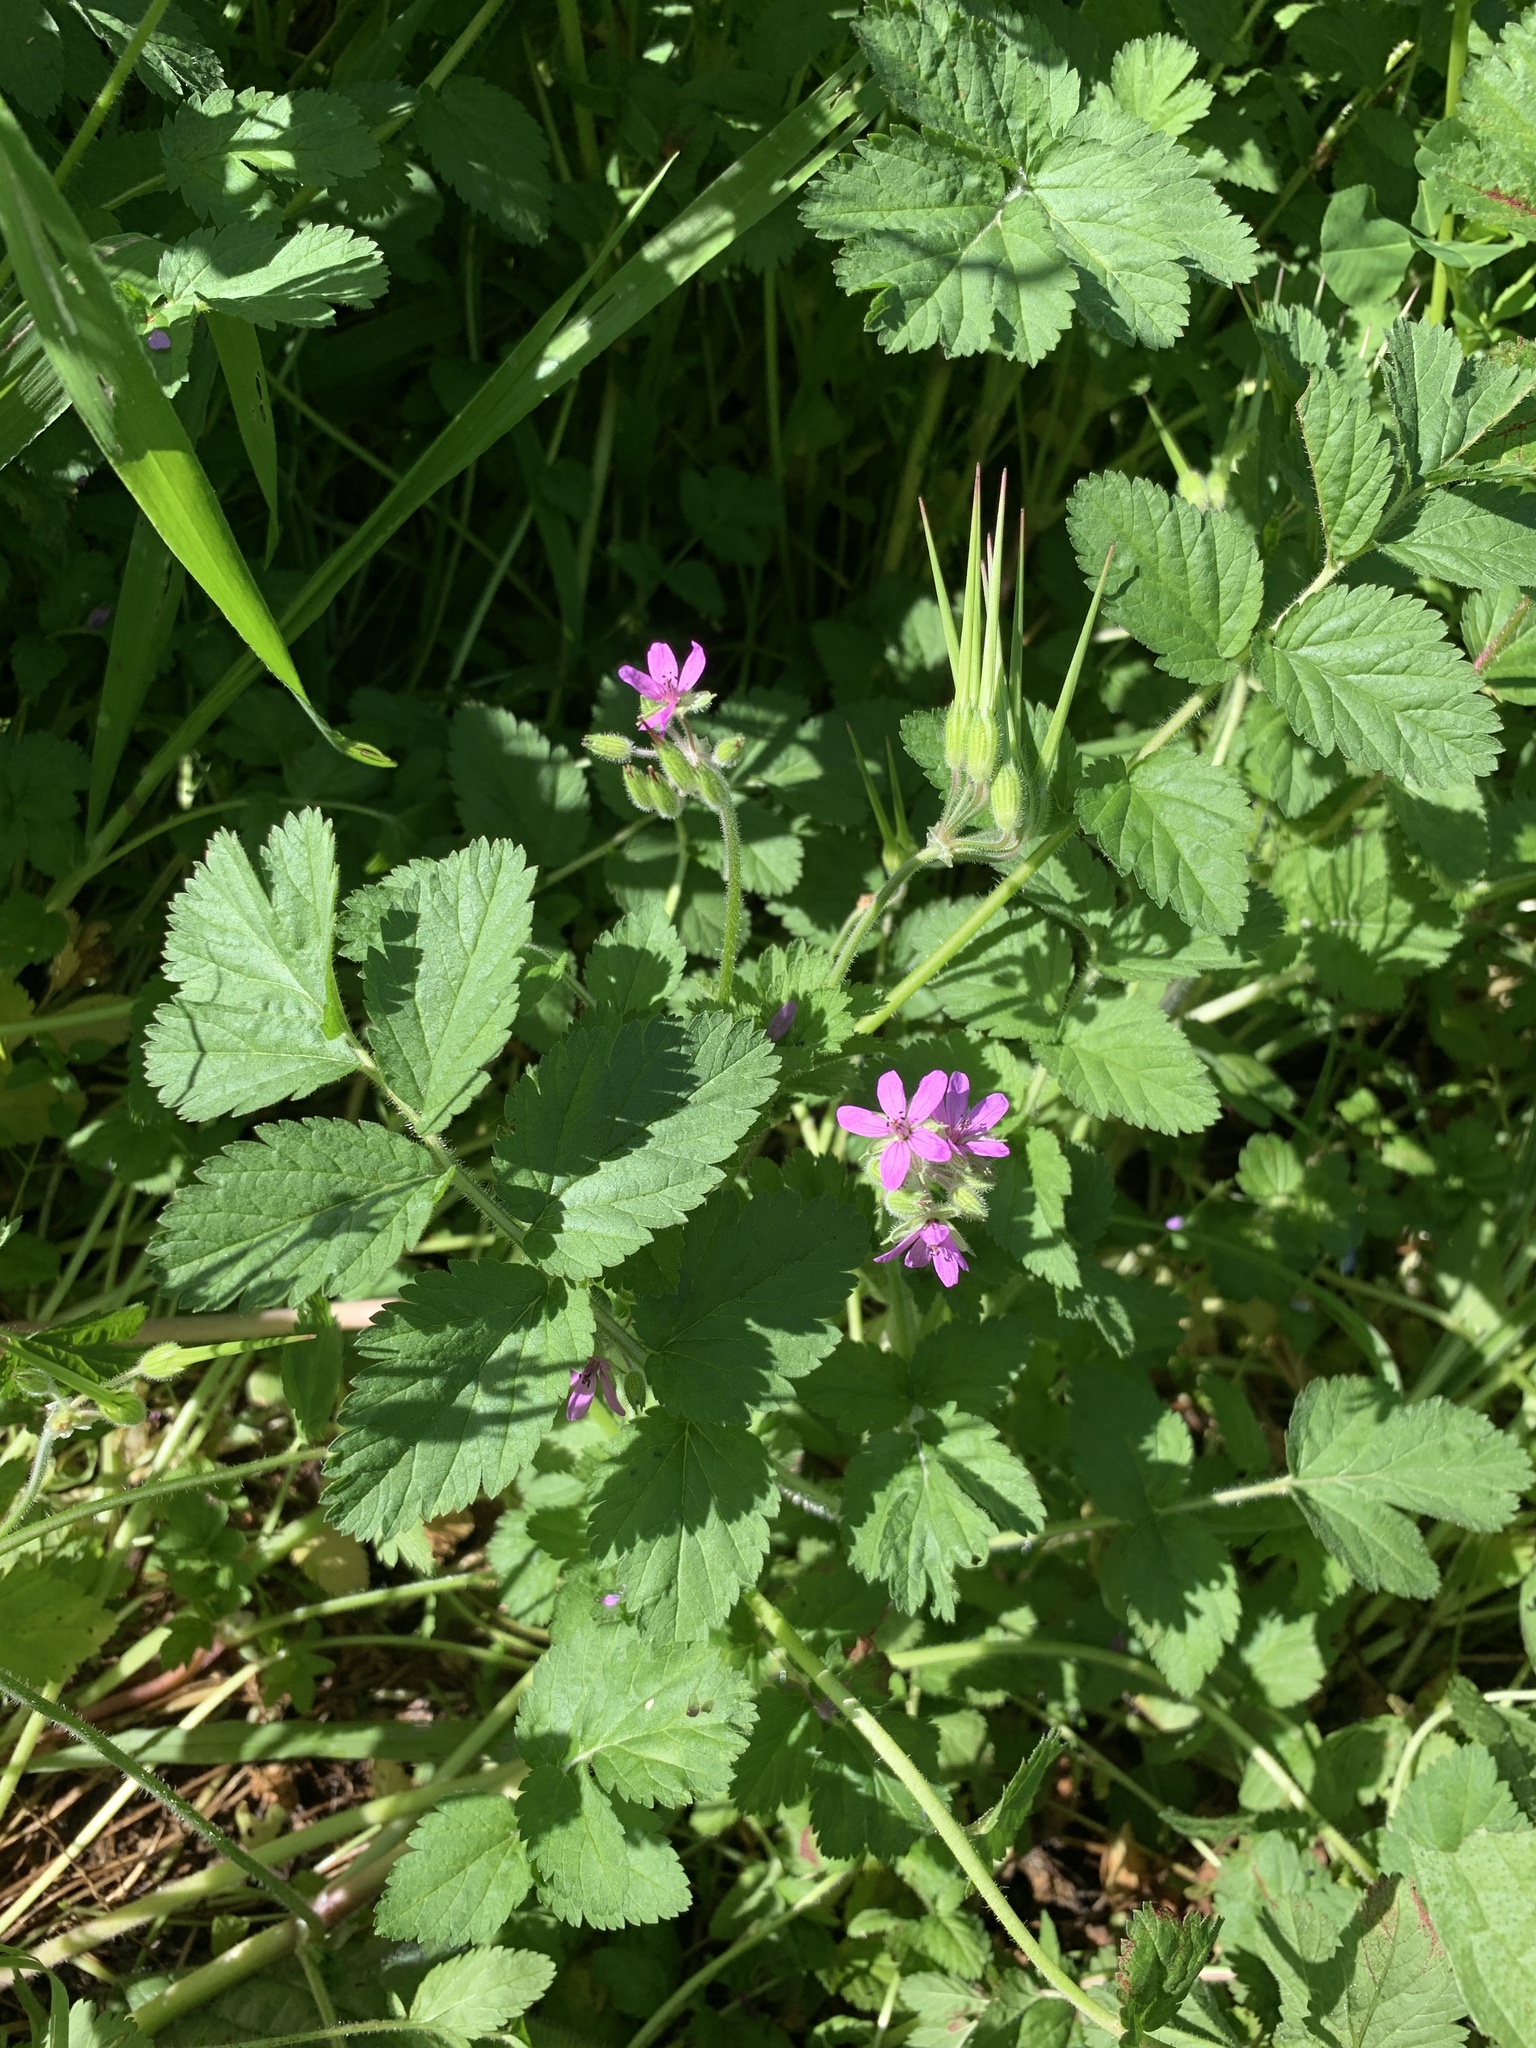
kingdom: Plantae
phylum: Tracheophyta
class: Magnoliopsida
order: Geraniales
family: Geraniaceae
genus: Erodium
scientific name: Erodium moschatum
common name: Musk stork's-bill
